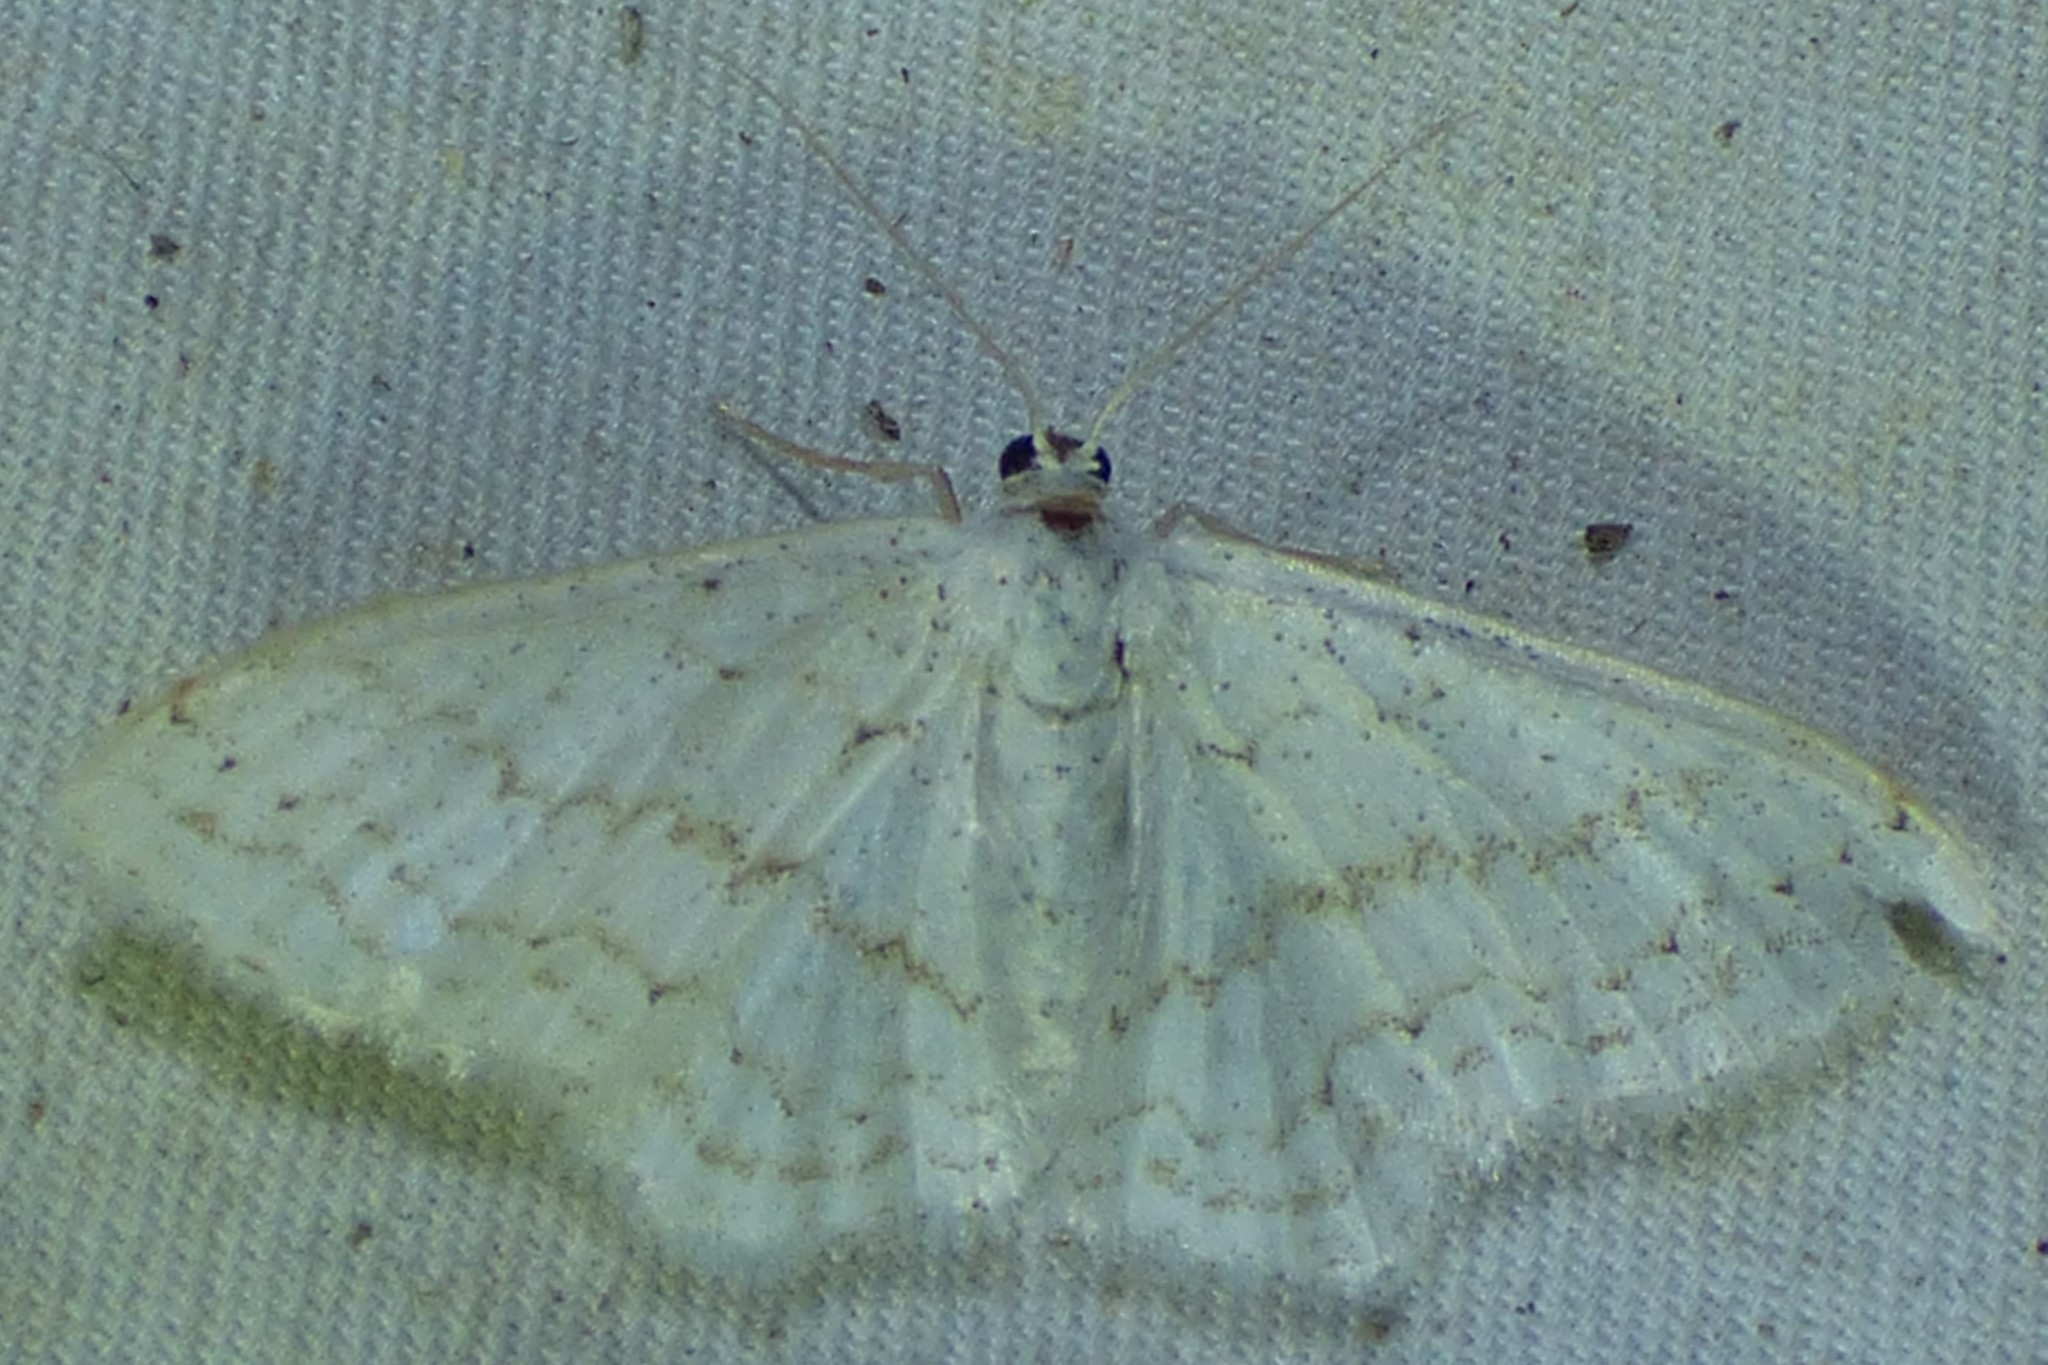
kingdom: Animalia
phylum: Arthropoda
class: Insecta
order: Lepidoptera
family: Geometridae
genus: Idaea
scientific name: Idaea tacturata
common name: Dot-lined wave
